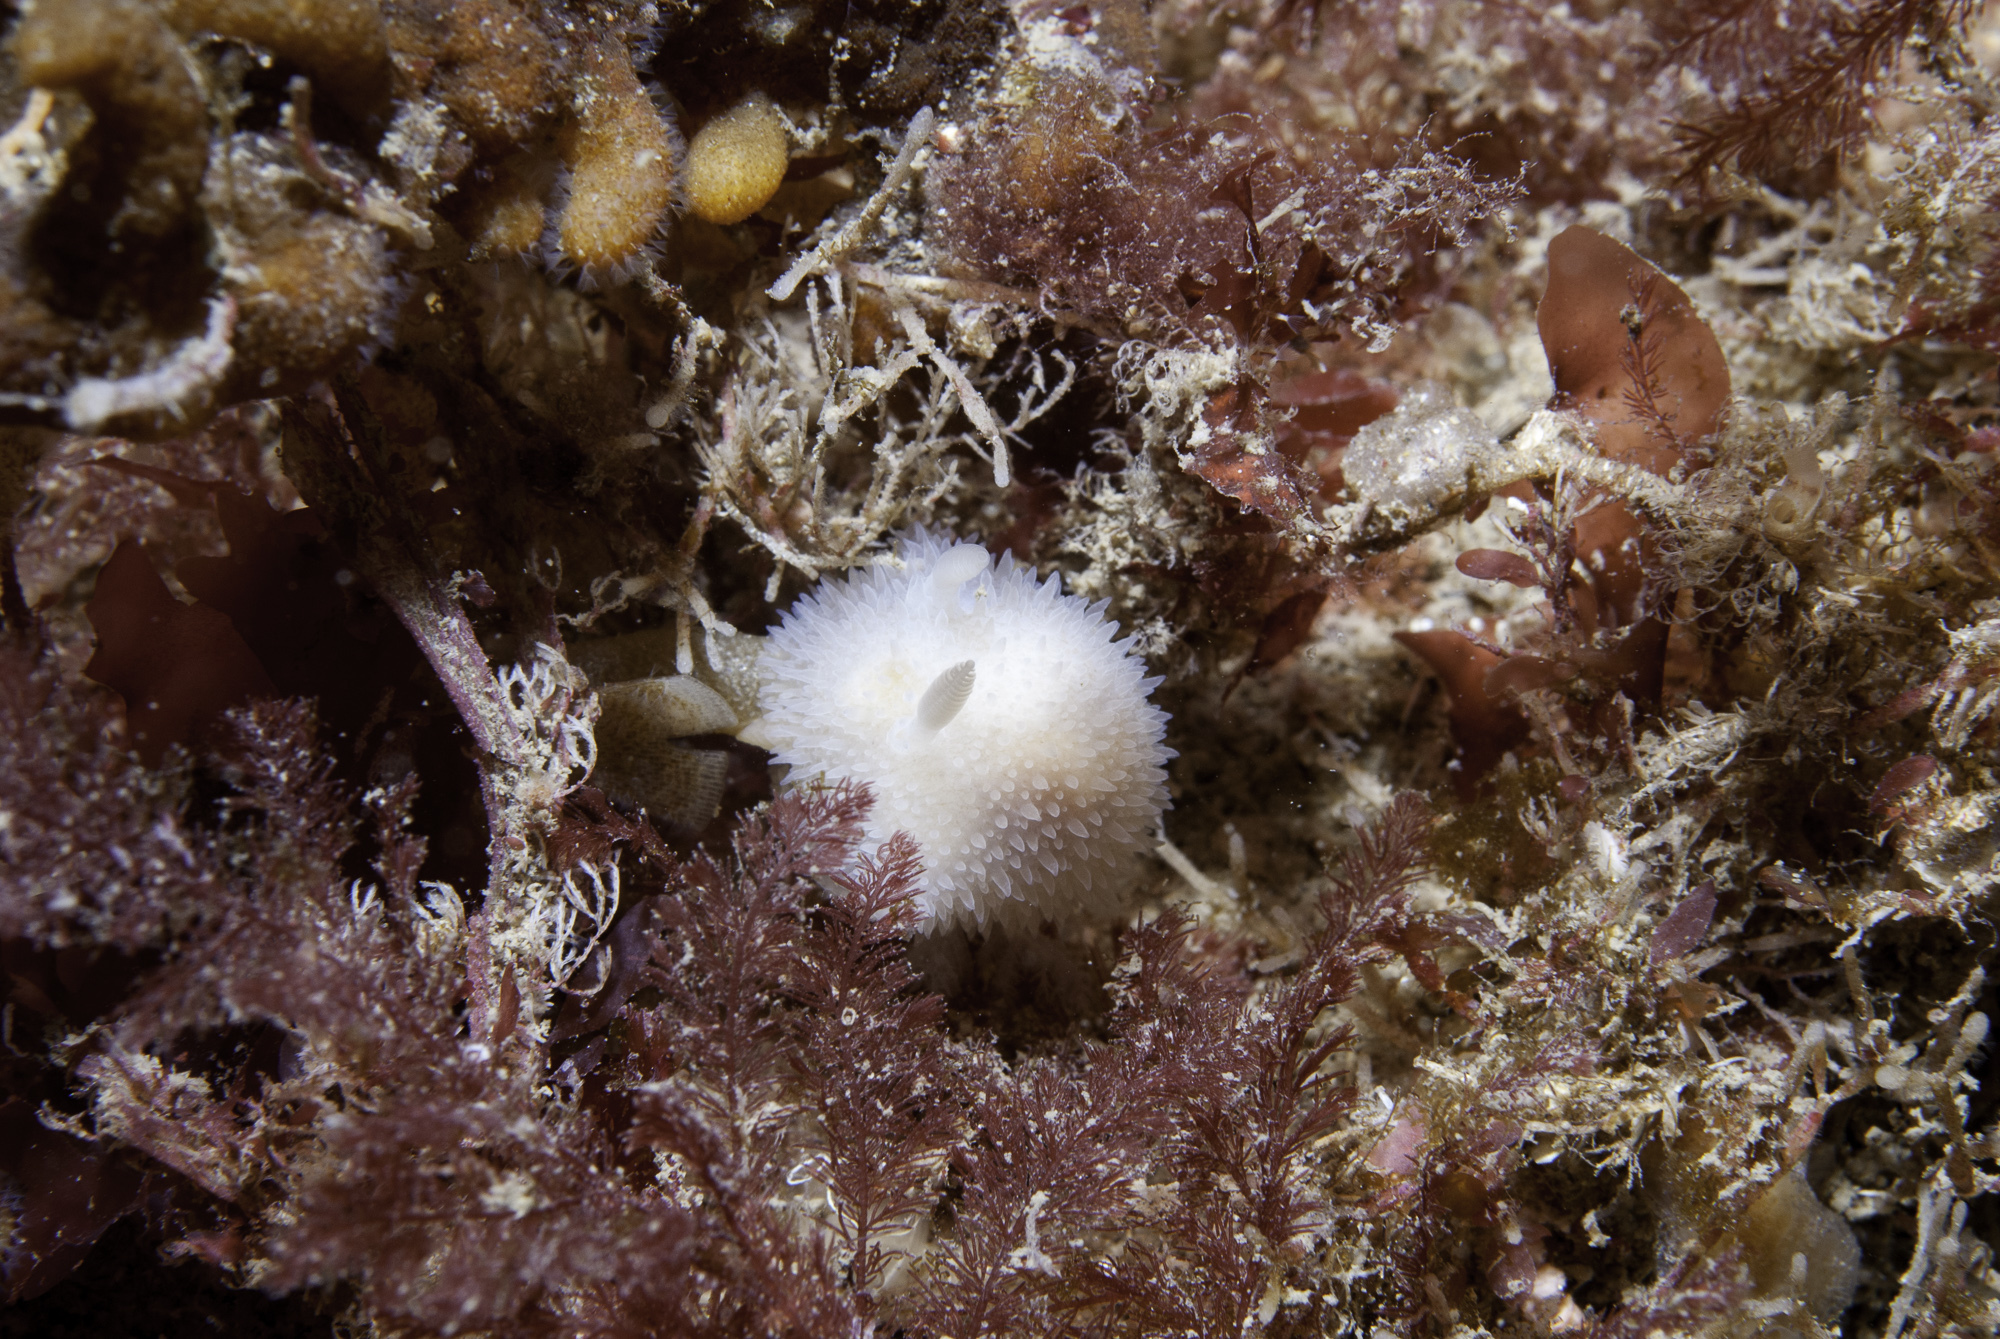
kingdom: Animalia
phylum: Mollusca
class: Gastropoda
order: Nudibranchia
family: Onchidorididae
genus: Acanthodoris
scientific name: Acanthodoris pilosa
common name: Hairy spiny doris
